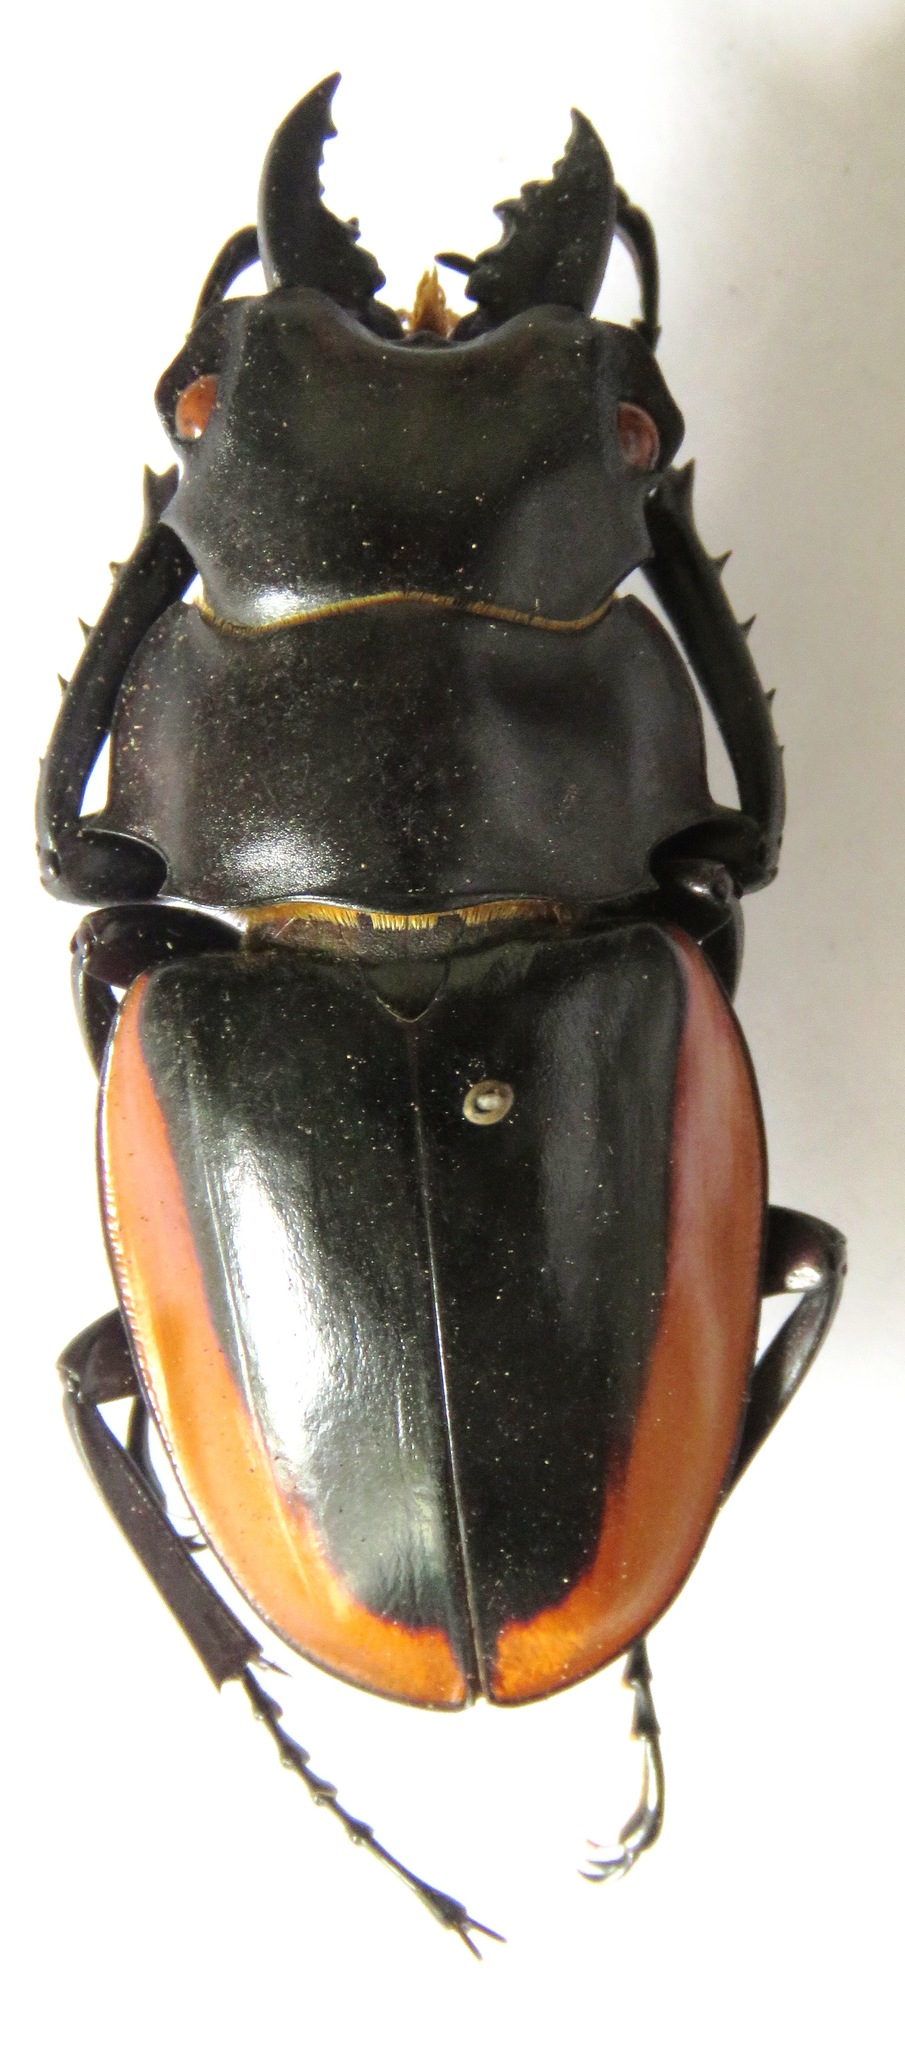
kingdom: Animalia
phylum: Arthropoda
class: Insecta
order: Coleoptera
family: Lucanidae
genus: Odontolabis
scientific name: Odontolabis cuvera
